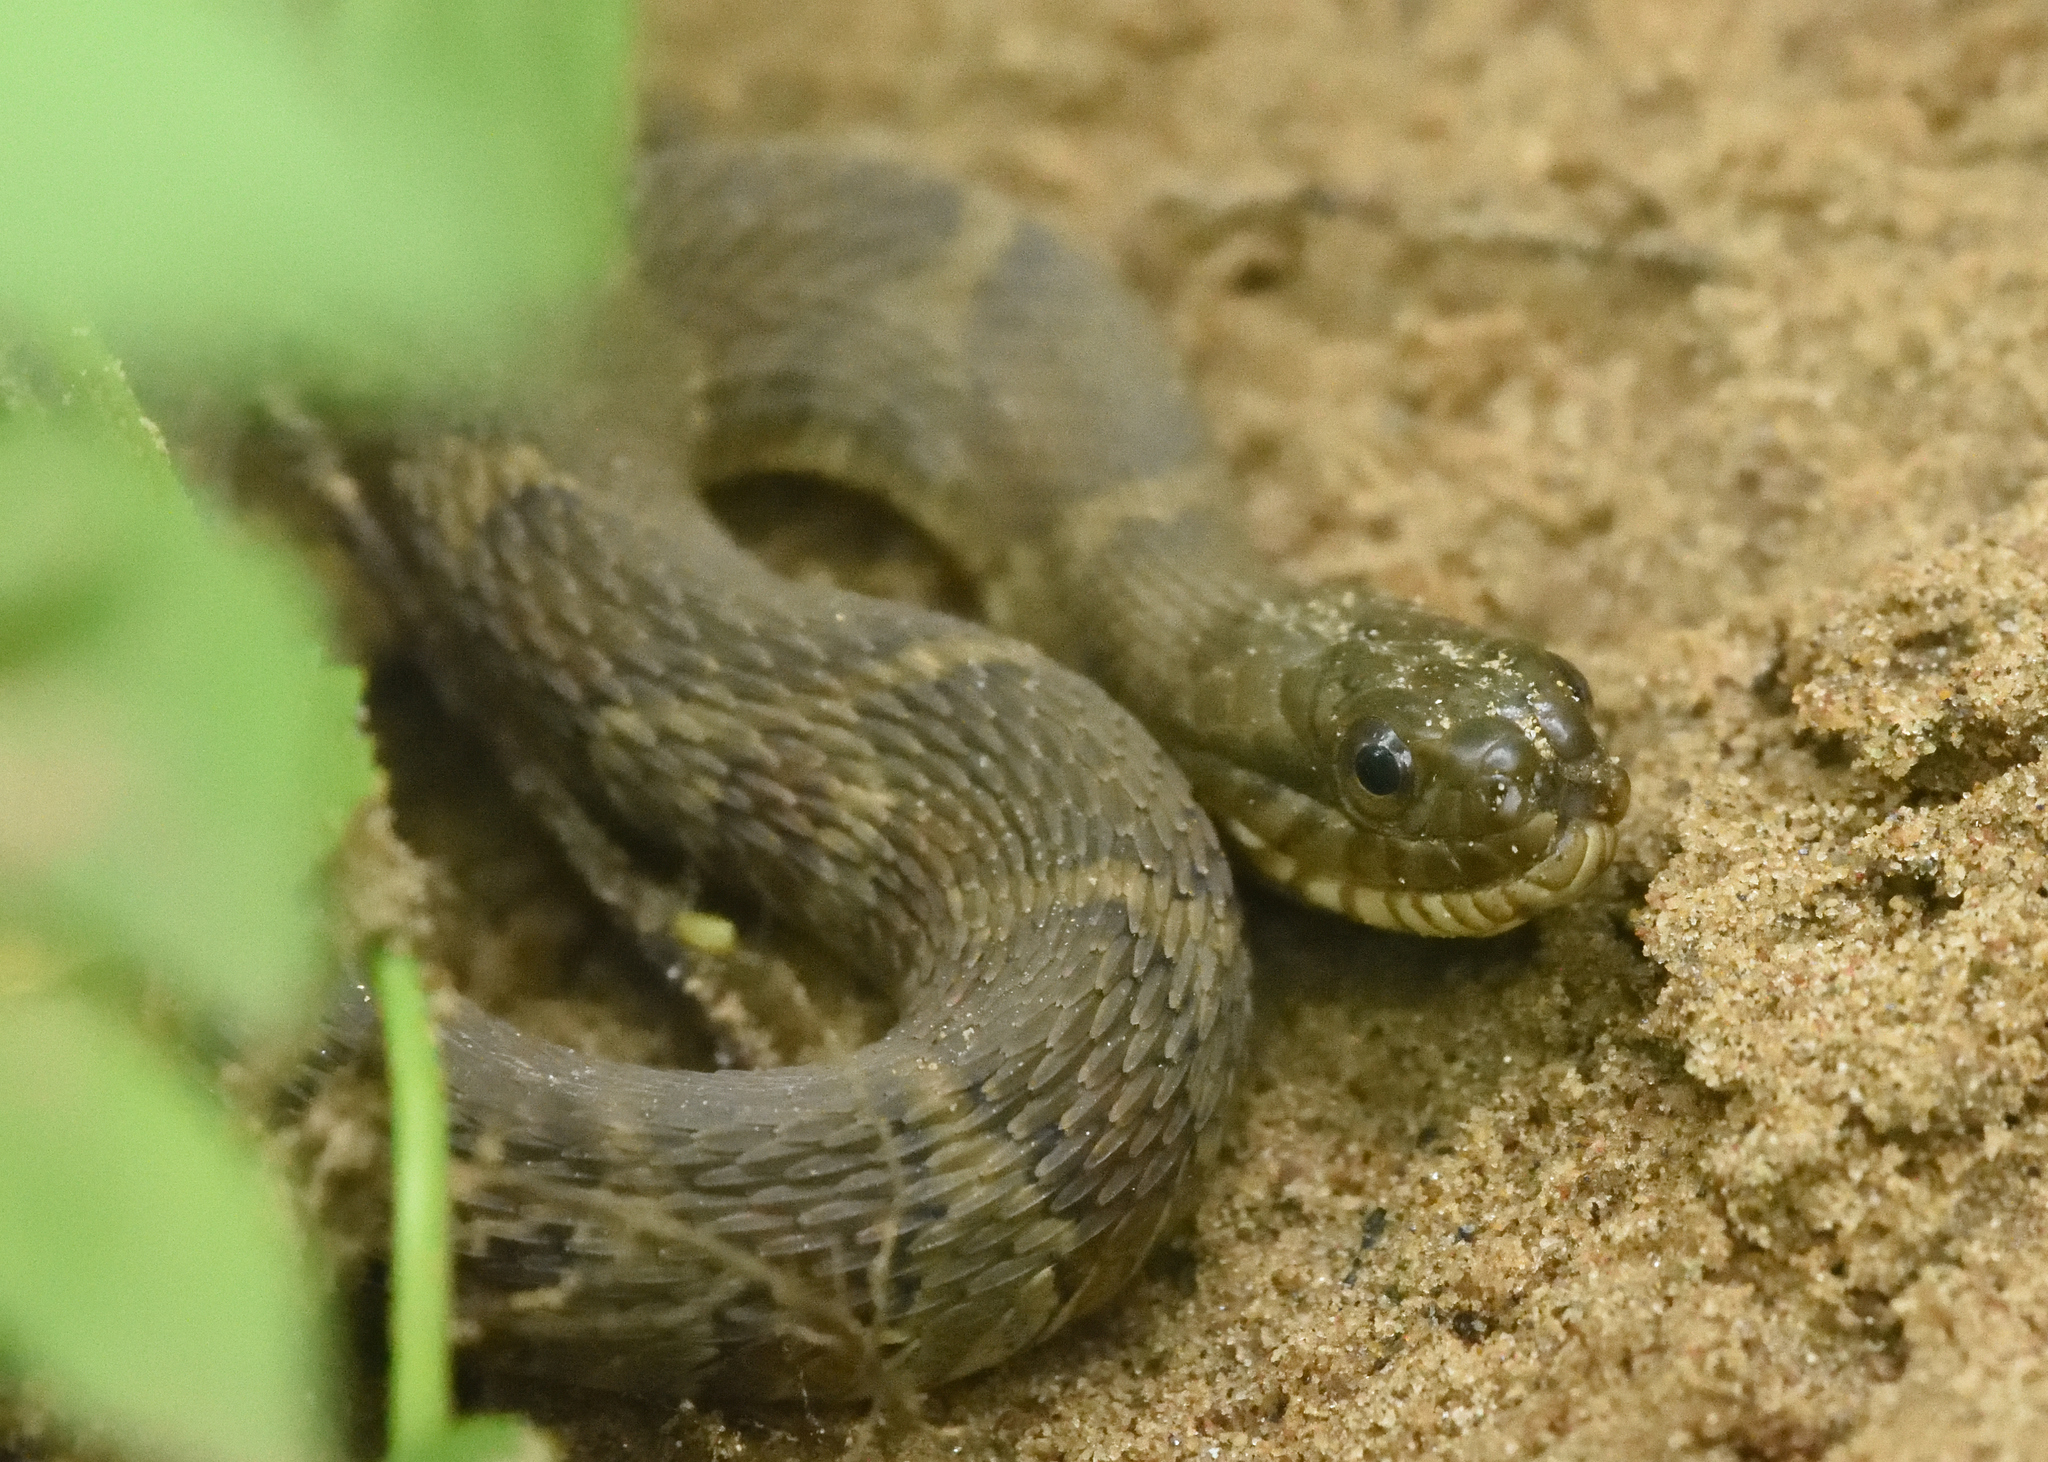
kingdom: Animalia
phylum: Chordata
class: Squamata
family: Colubridae
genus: Nerodia
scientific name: Nerodia sipedon
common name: Northern water snake
